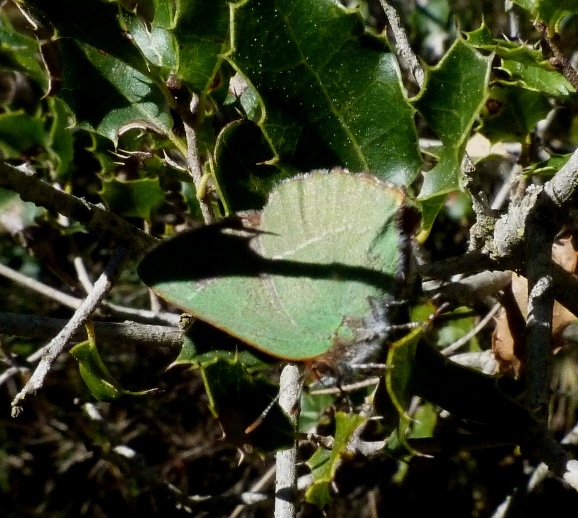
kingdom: Animalia
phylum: Arthropoda
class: Insecta
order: Lepidoptera
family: Lycaenidae
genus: Callophrys
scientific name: Callophrys avis
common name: Chapman's green hairstreak
